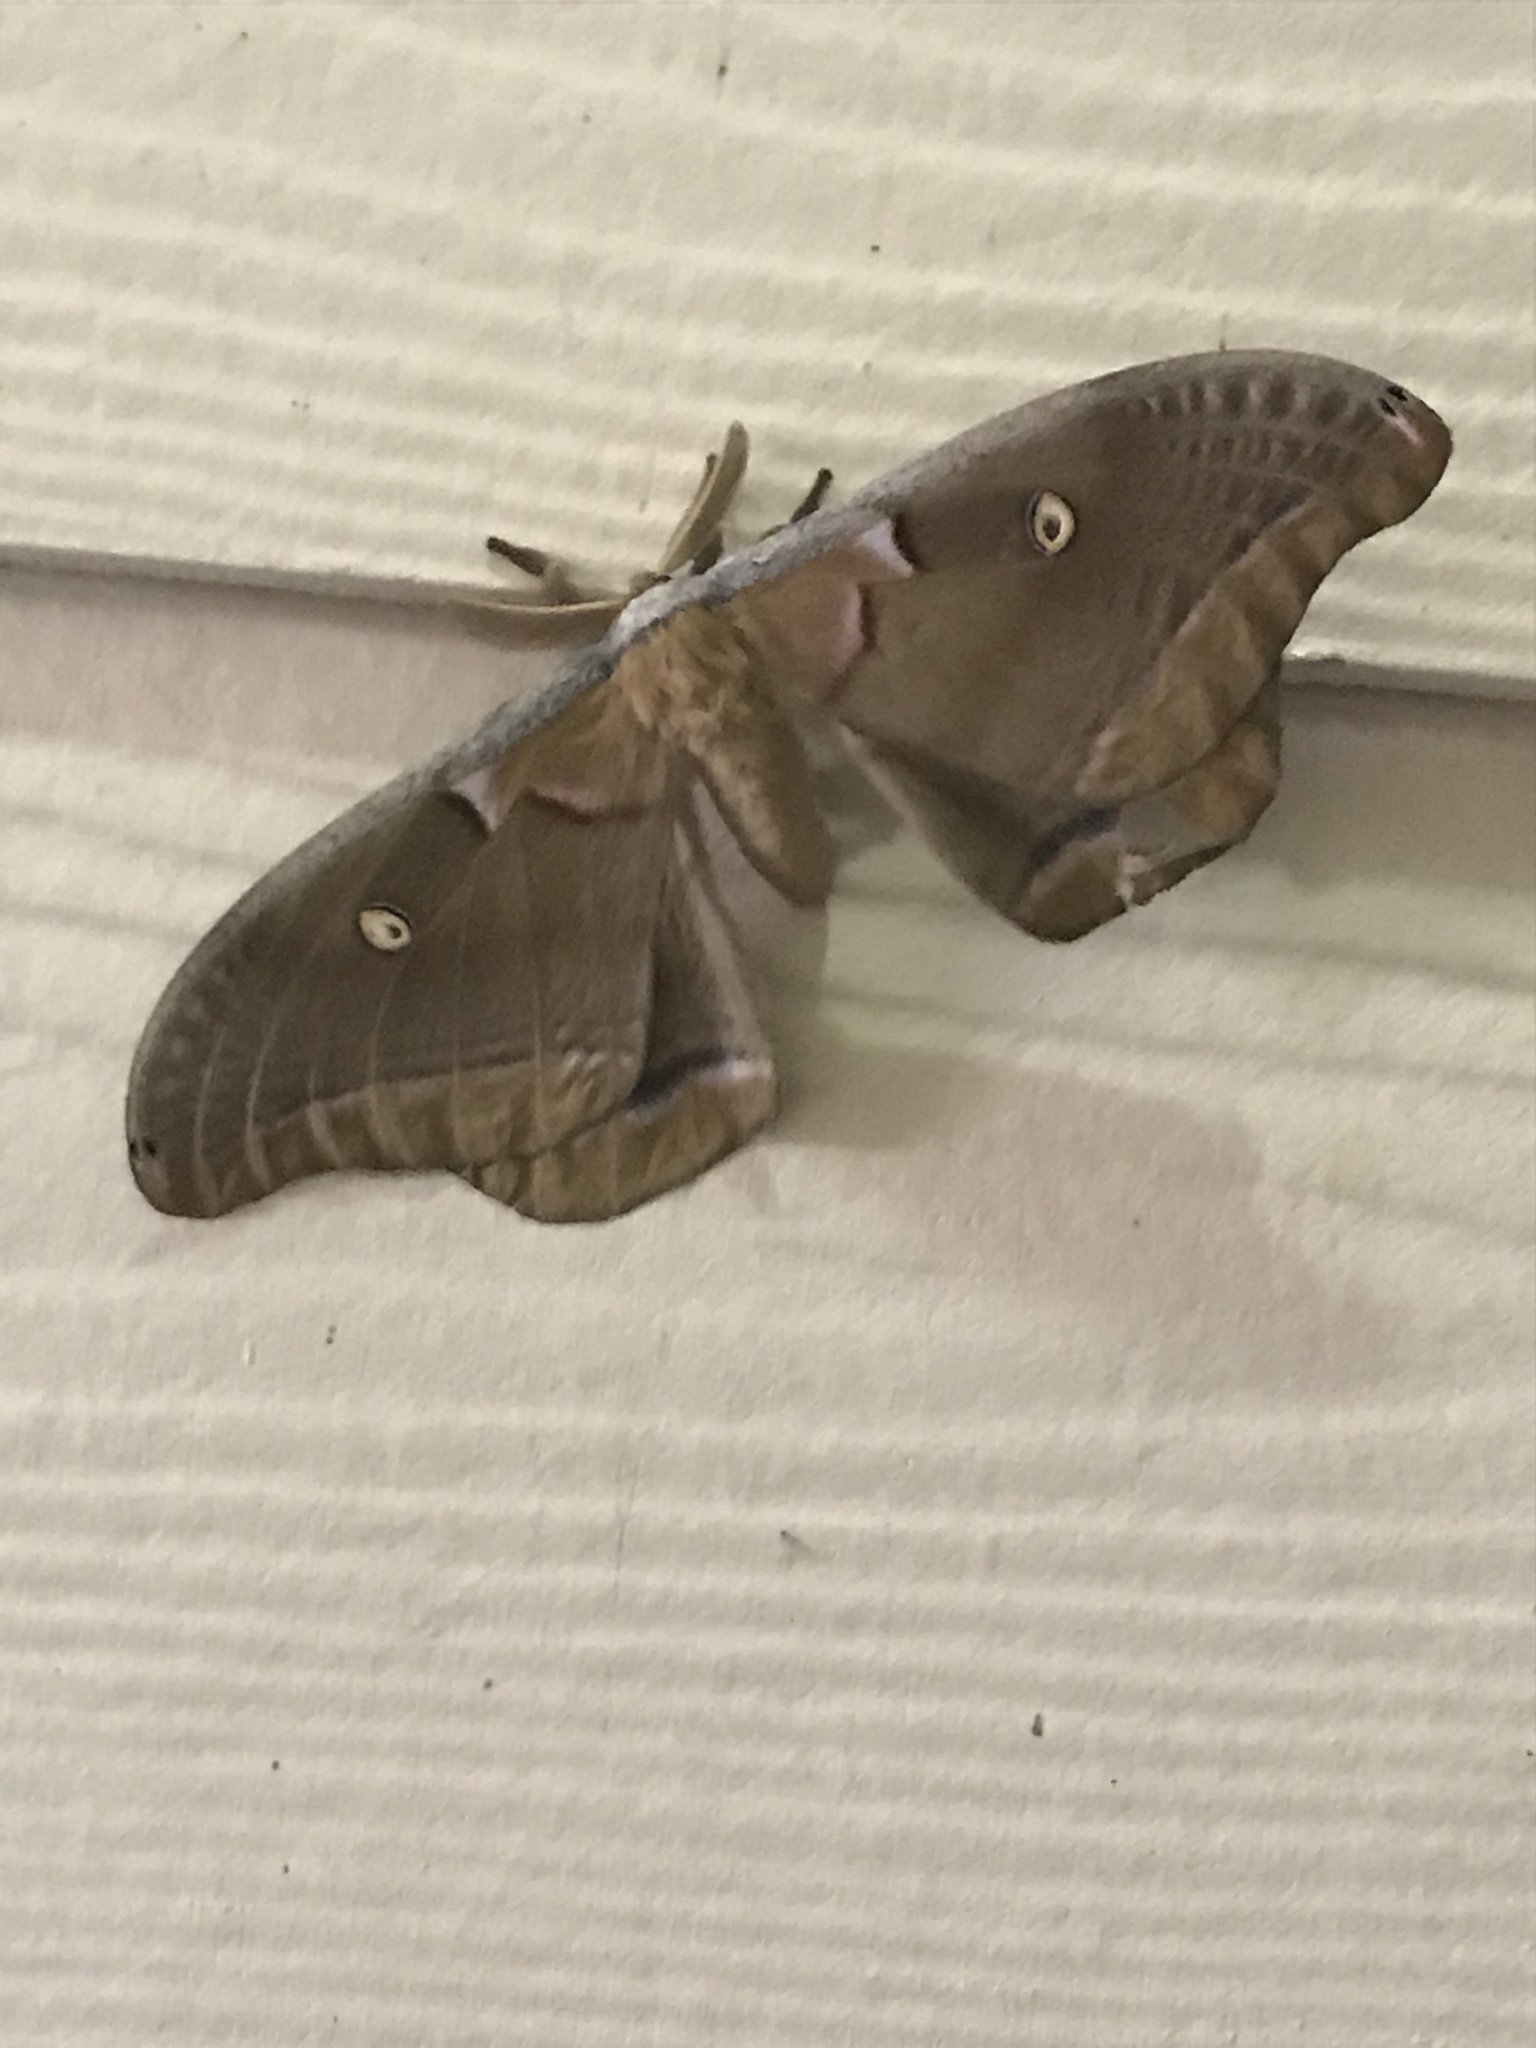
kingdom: Animalia
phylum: Arthropoda
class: Insecta
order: Lepidoptera
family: Saturniidae
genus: Antheraea
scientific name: Antheraea polyphemus
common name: Polyphemus moth
